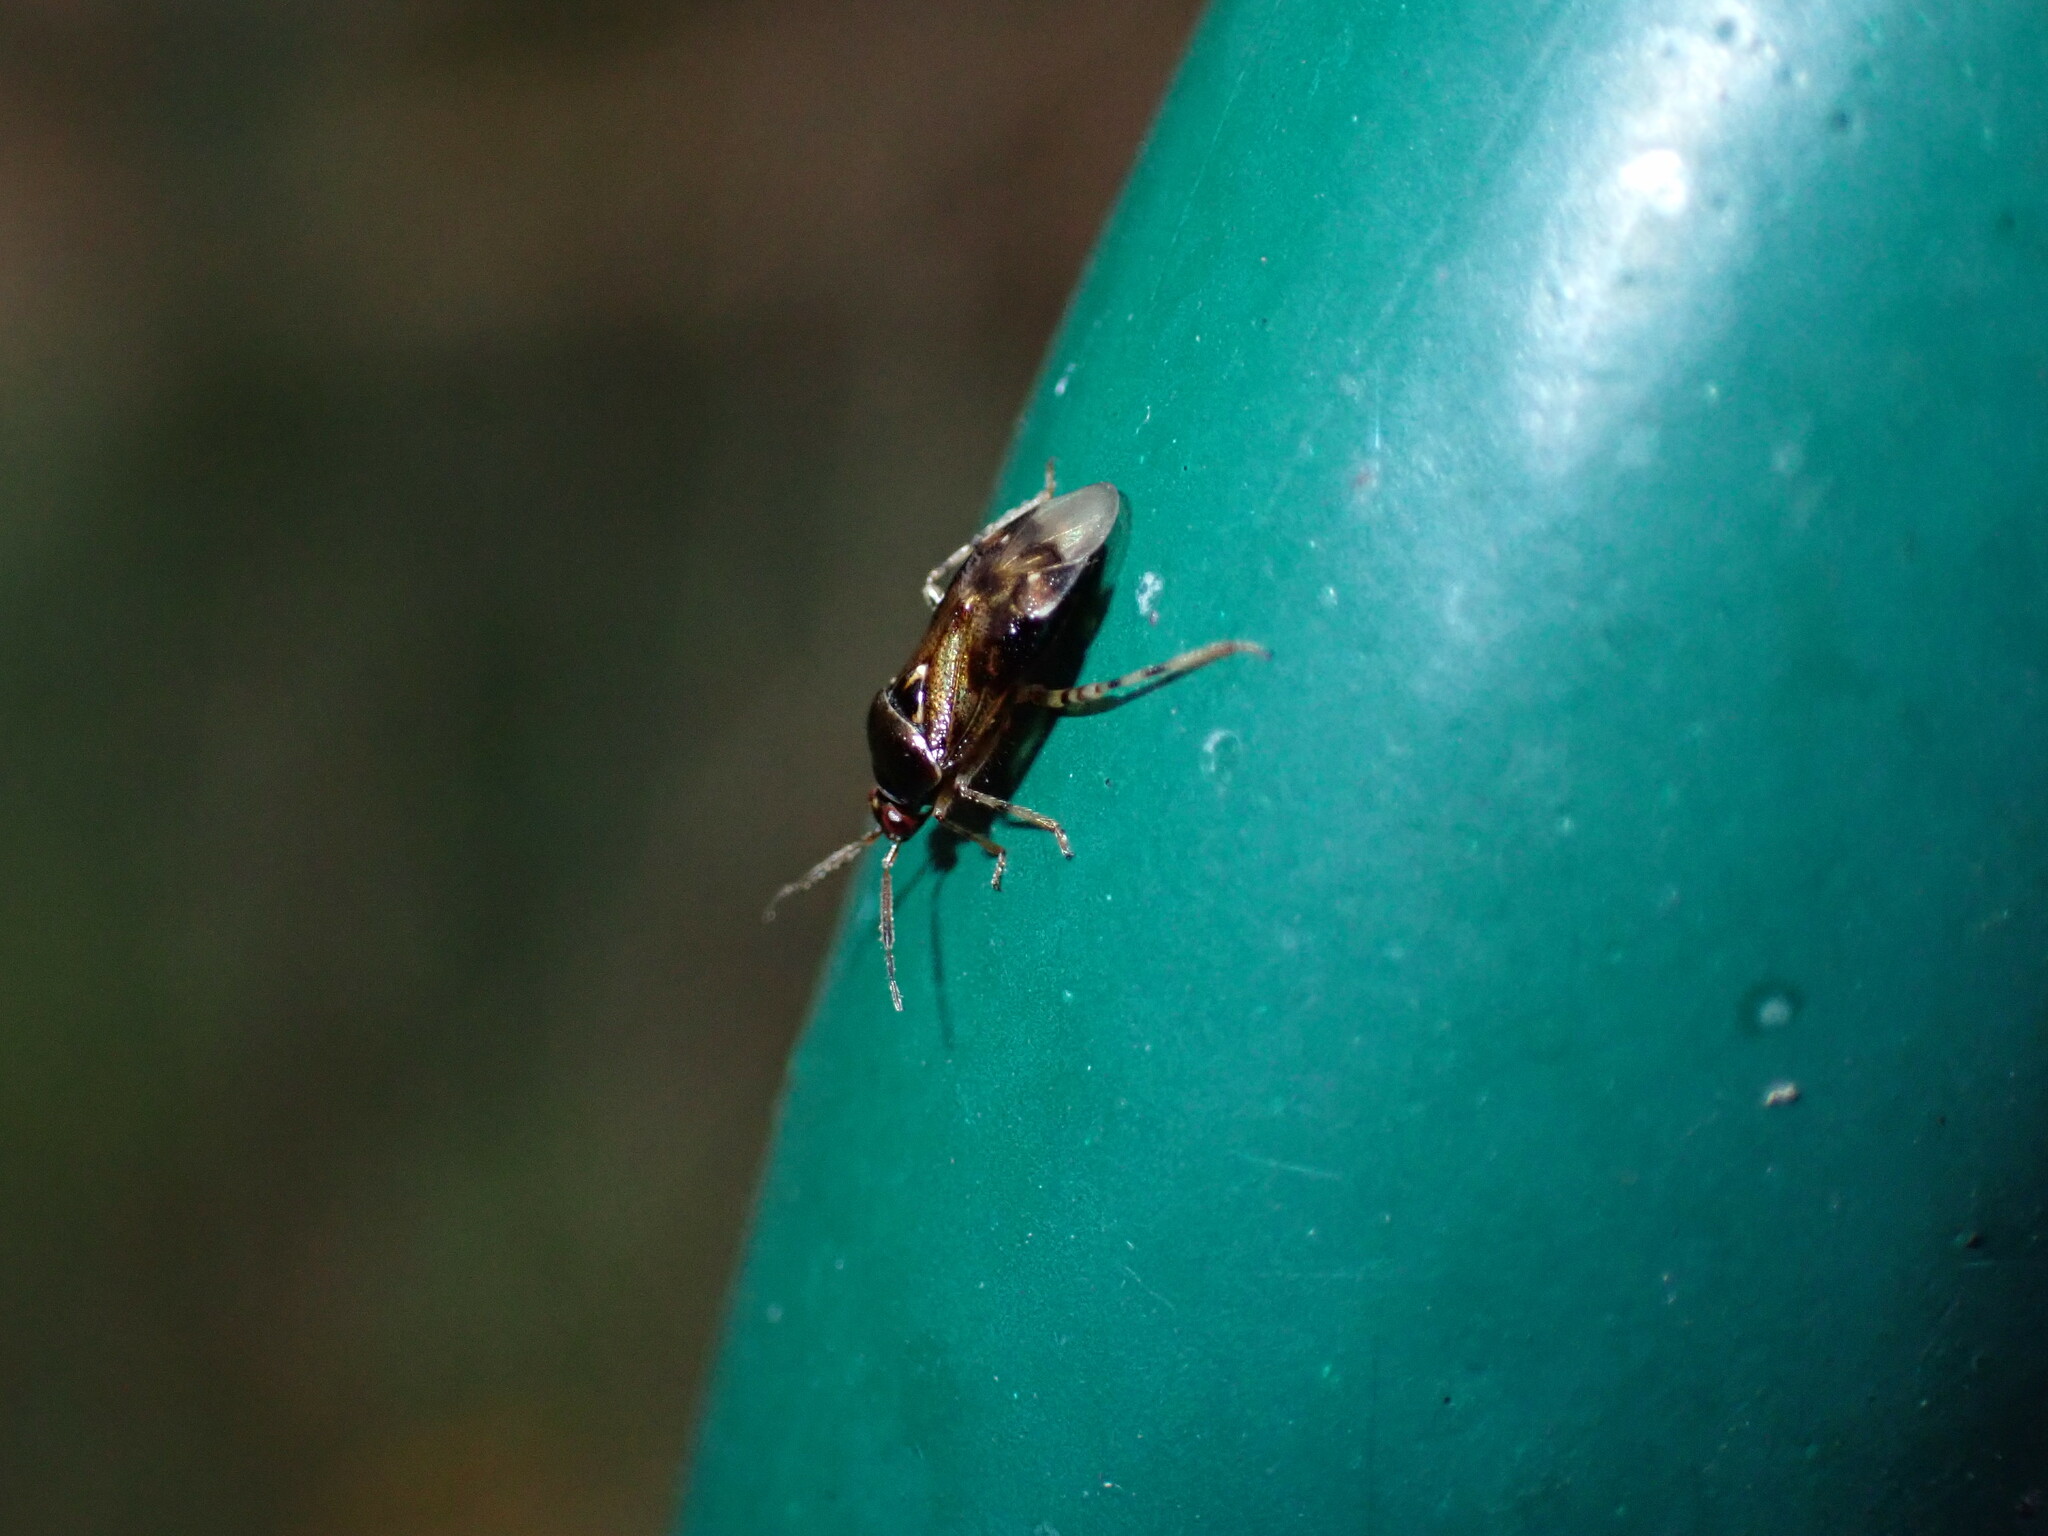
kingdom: Animalia
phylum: Arthropoda
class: Insecta
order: Hemiptera
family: Miridae
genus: Deraeocoris
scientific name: Deraeocoris lutescens
